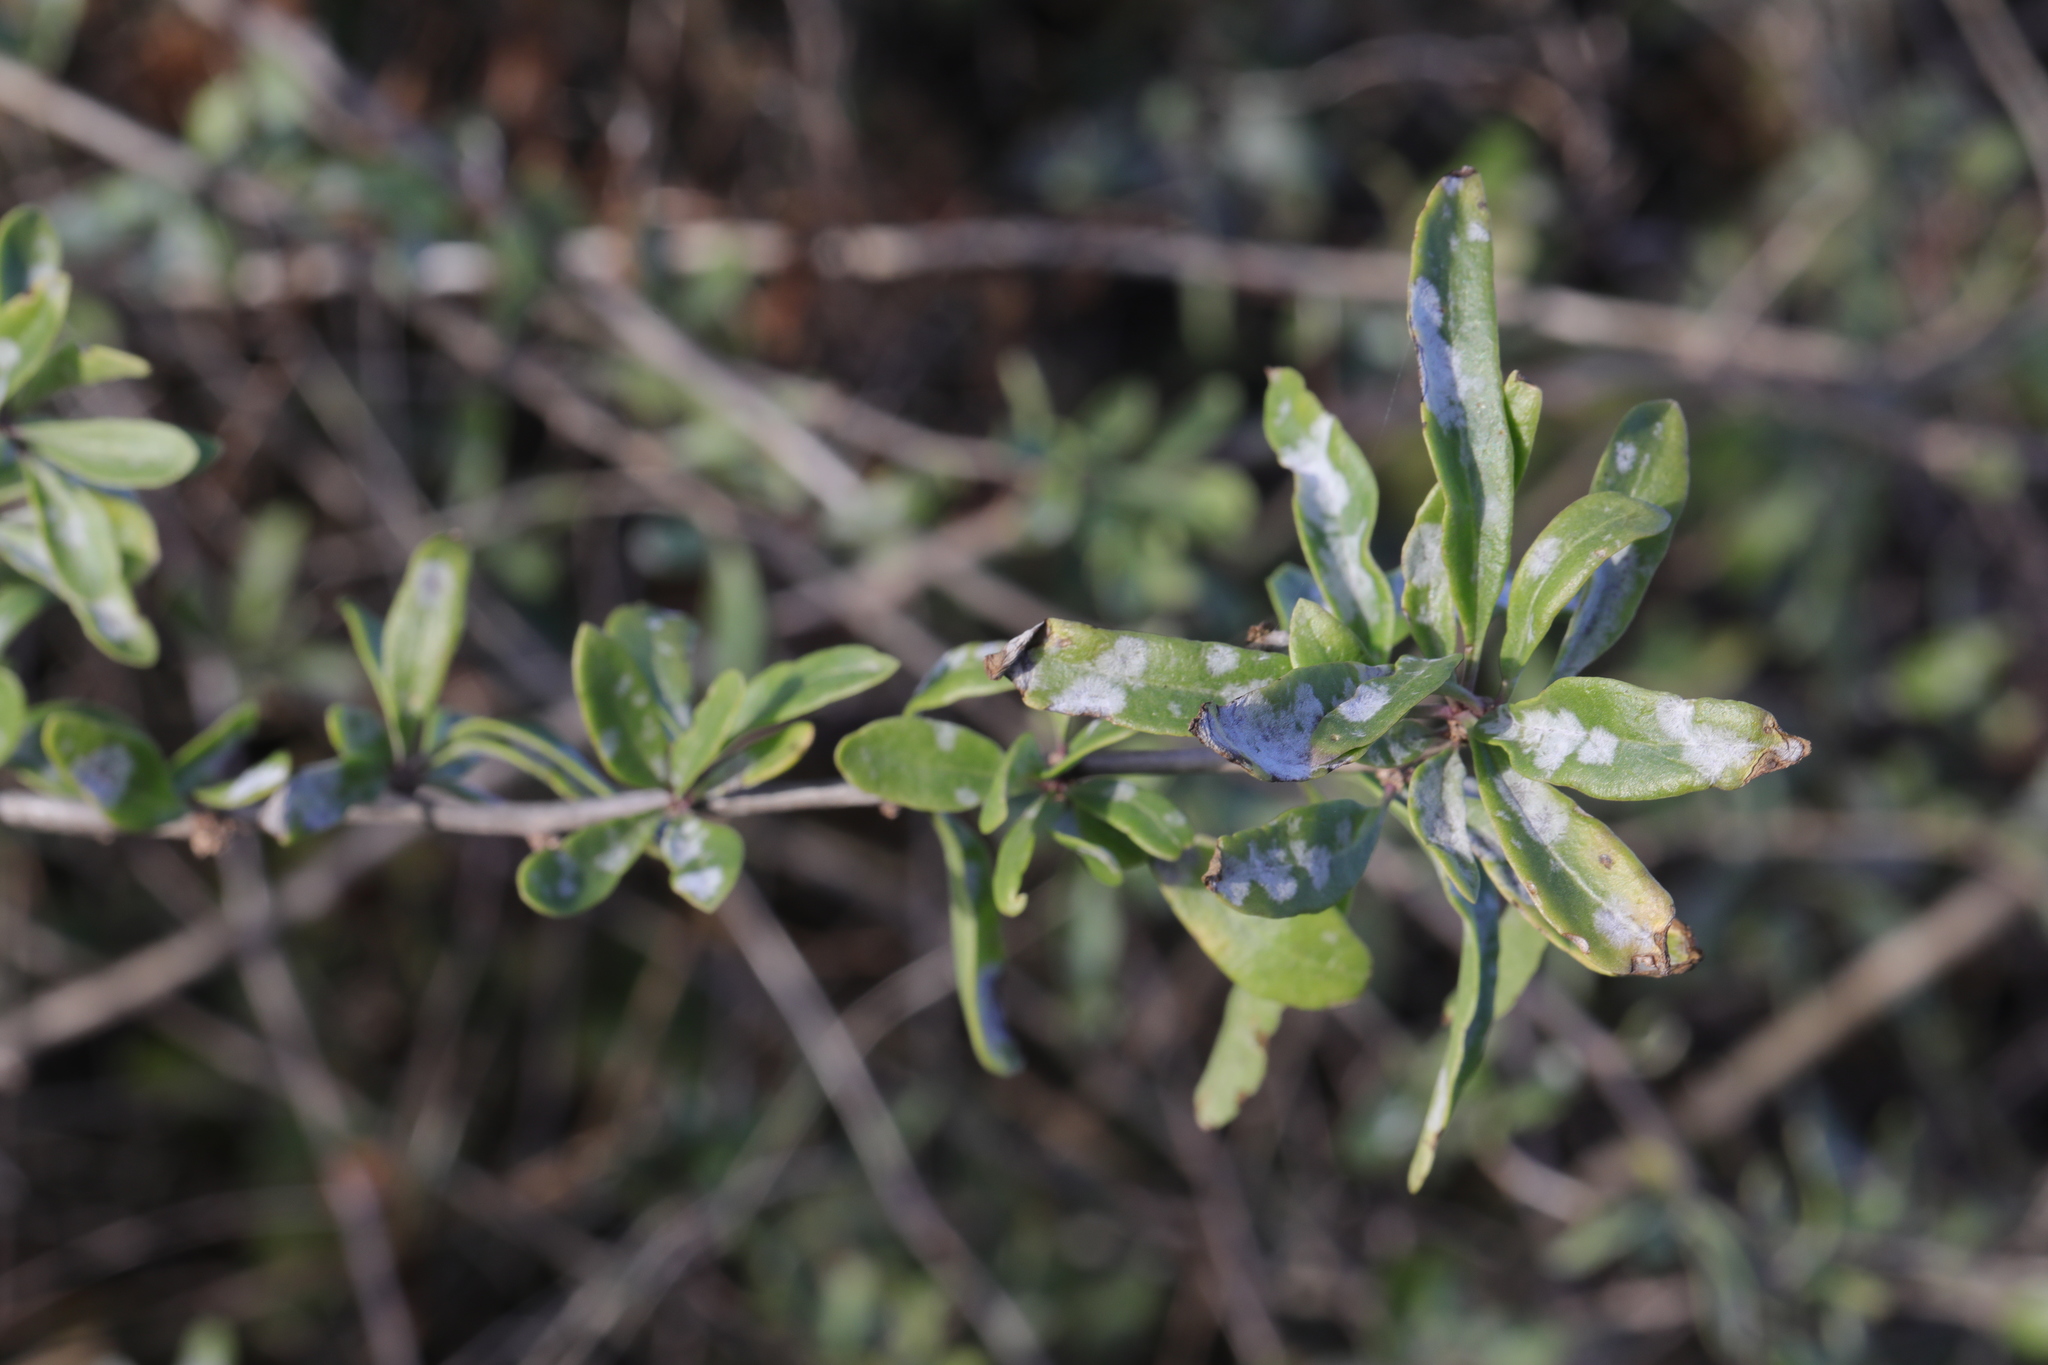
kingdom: Plantae
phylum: Tracheophyta
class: Magnoliopsida
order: Solanales
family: Solanaceae
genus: Lycium
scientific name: Lycium barbarum
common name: Duke of argyll's teaplant
